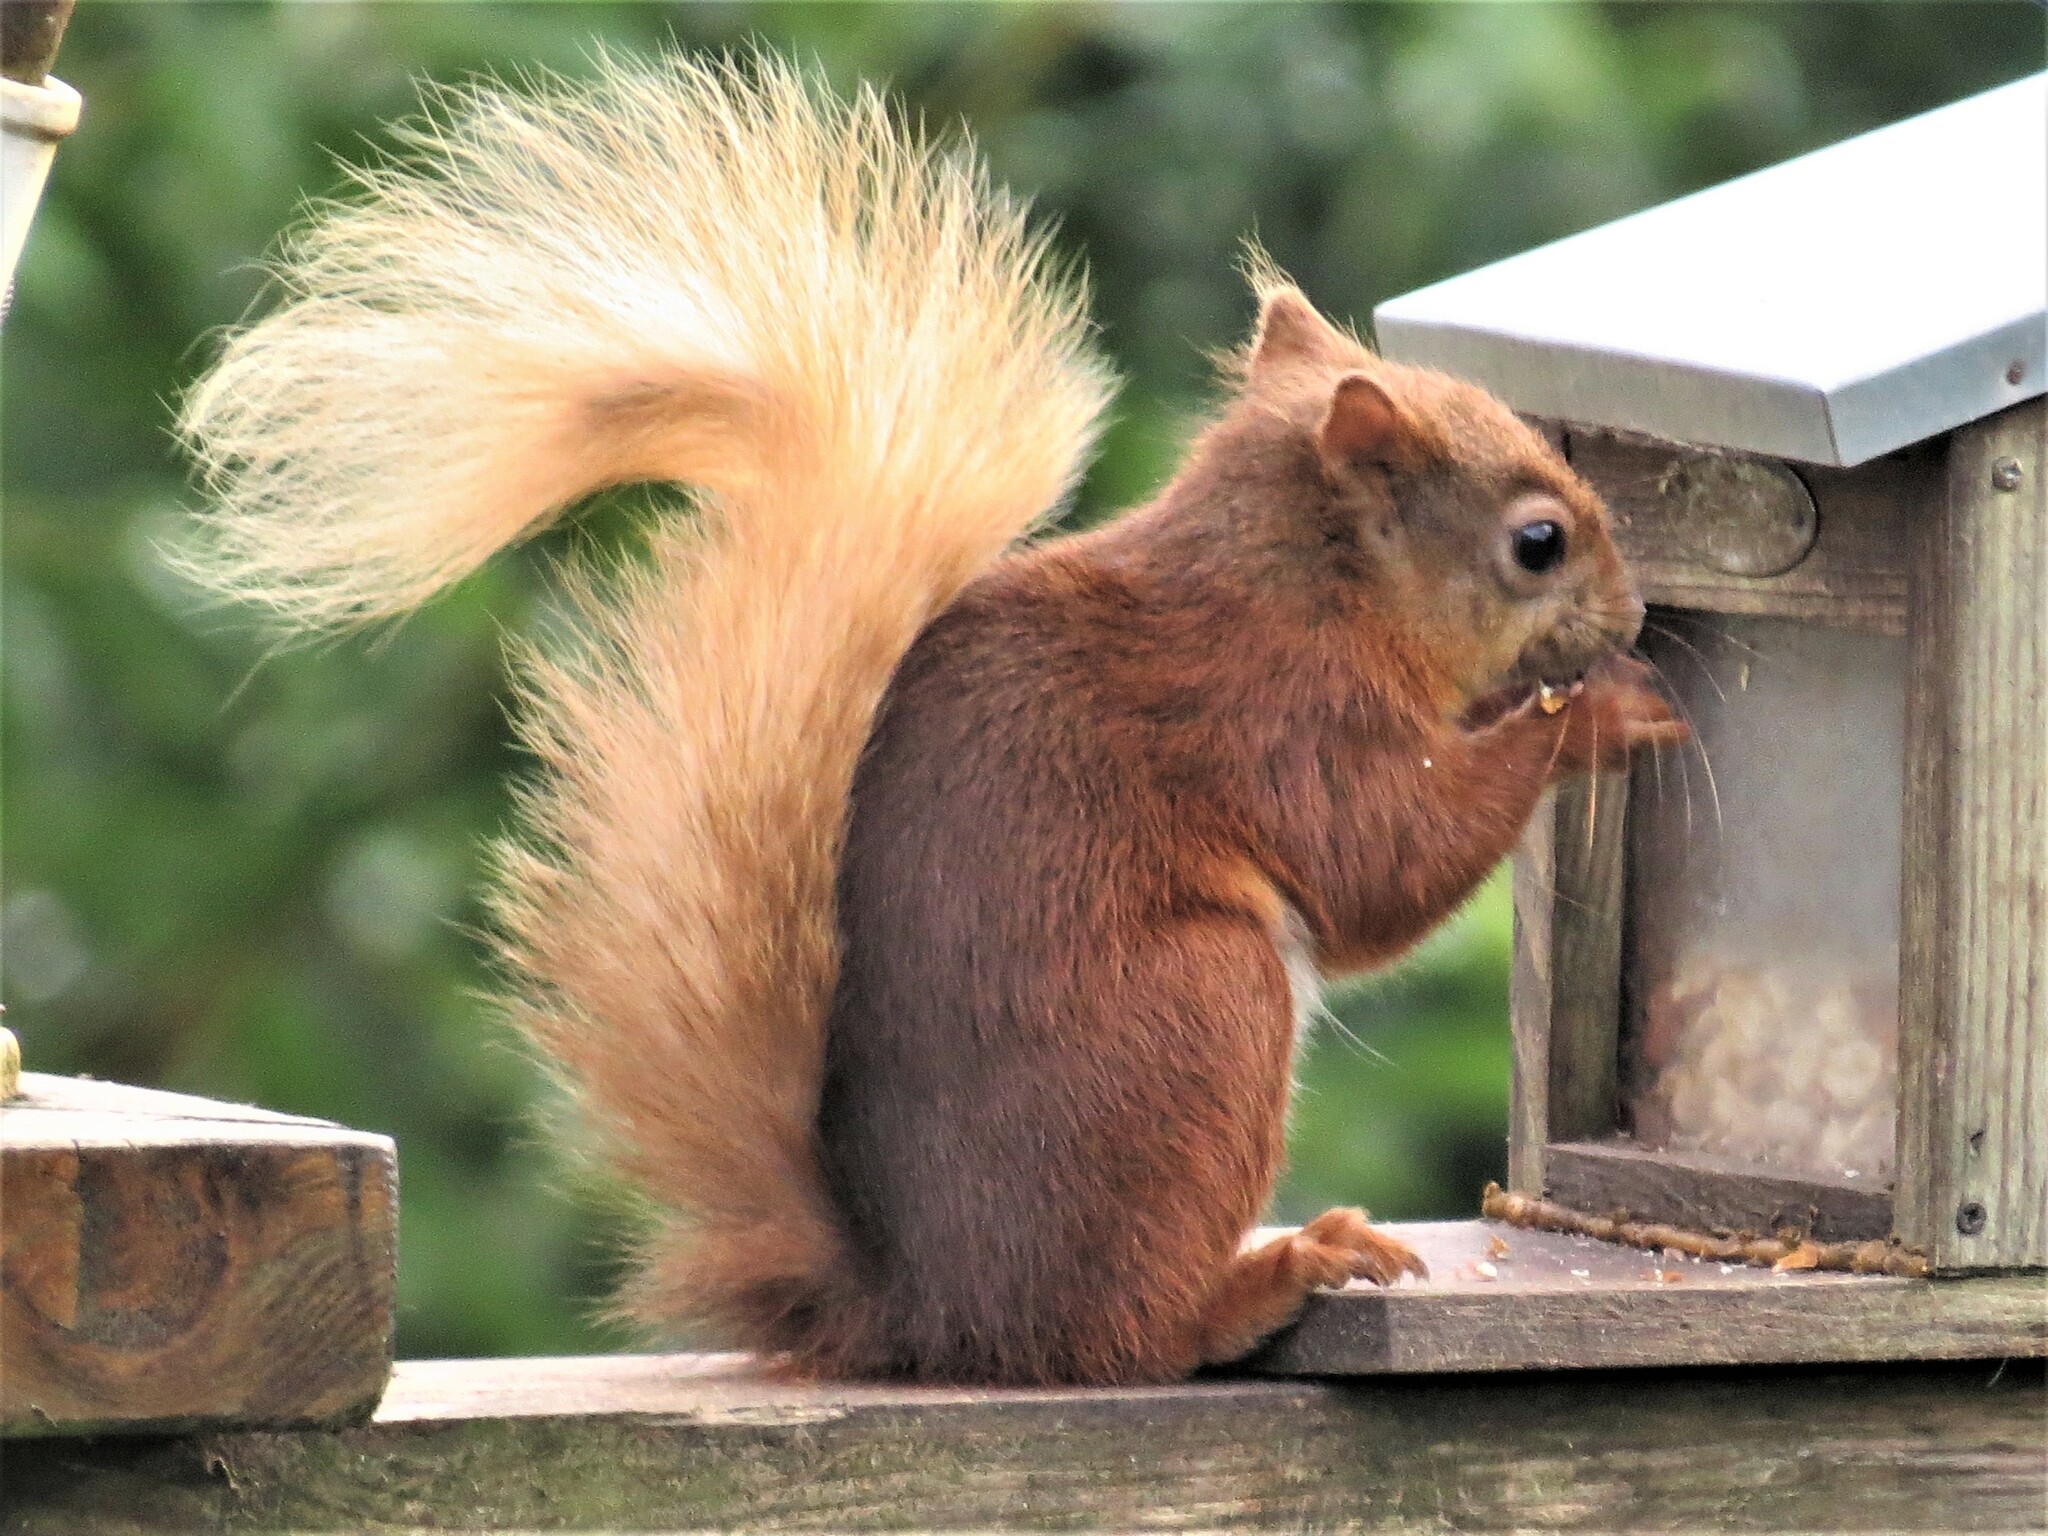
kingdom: Animalia
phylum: Chordata
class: Mammalia
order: Rodentia
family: Sciuridae
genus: Sciurus
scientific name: Sciurus vulgaris
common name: Eurasian red squirrel
